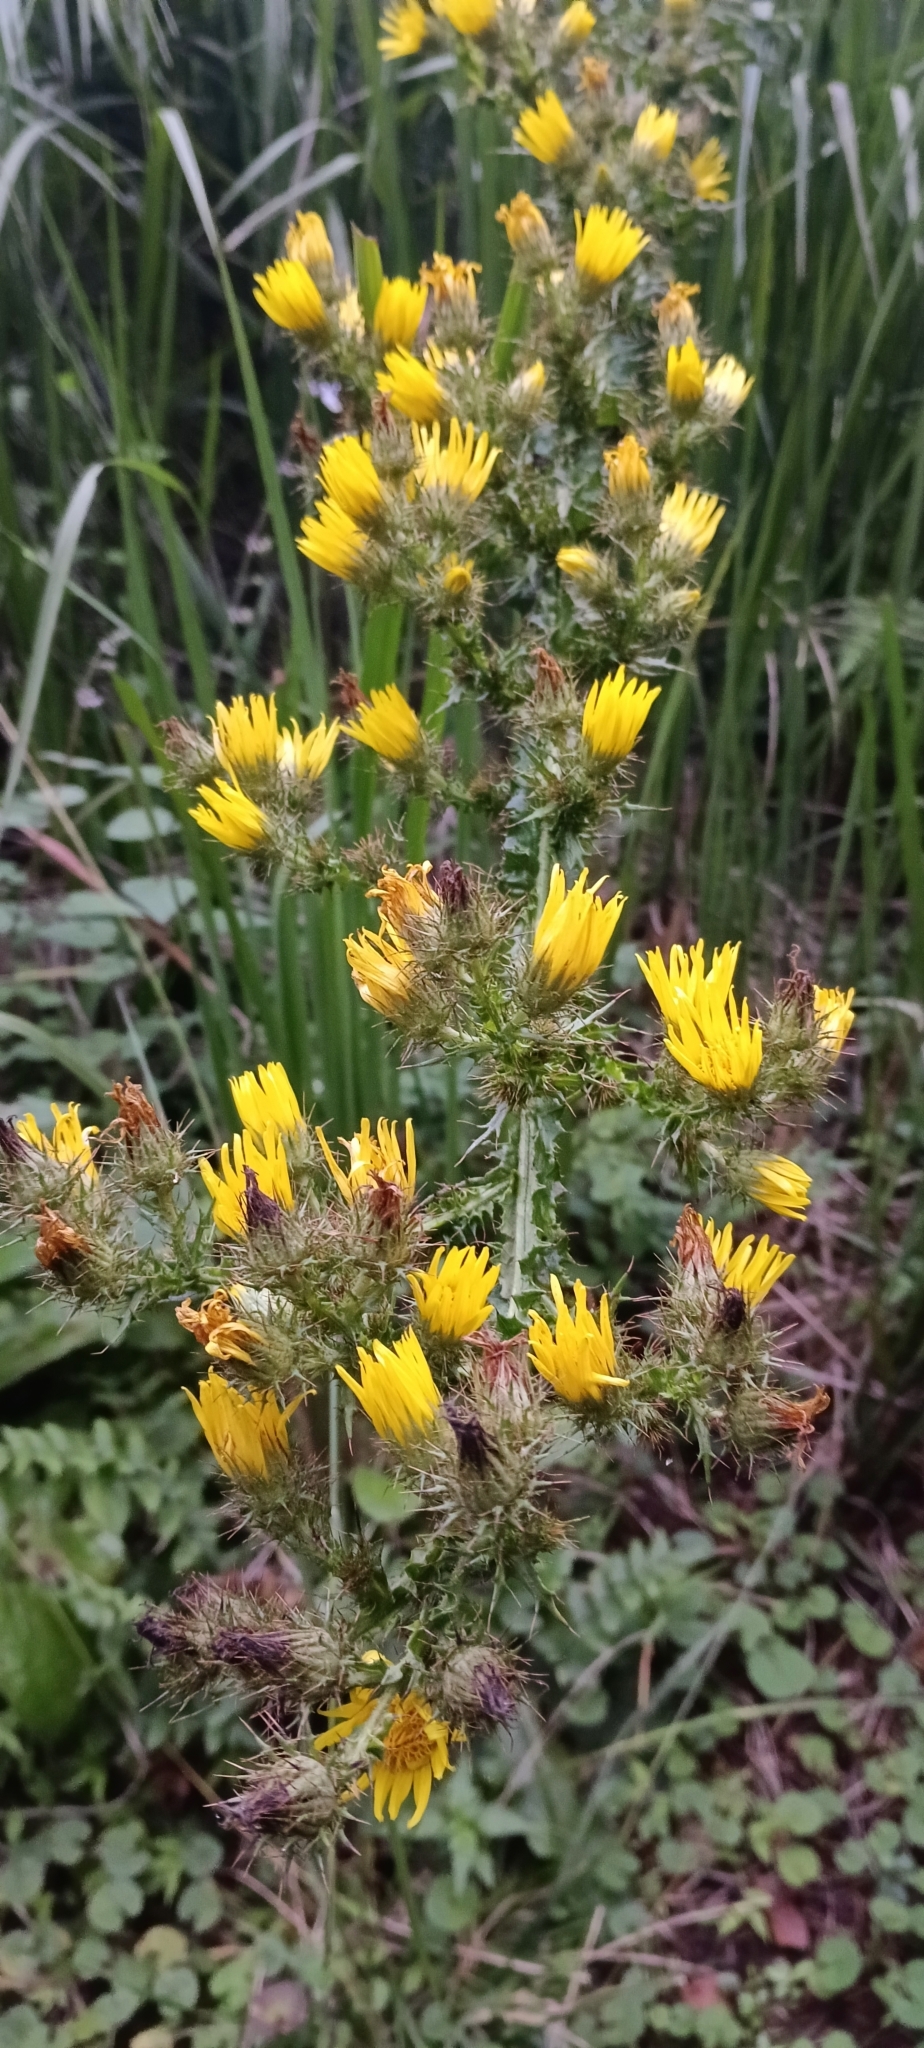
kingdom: Plantae
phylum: Tracheophyta
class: Magnoliopsida
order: Asterales
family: Asteraceae
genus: Berkheya
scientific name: Berkheya echinacea
